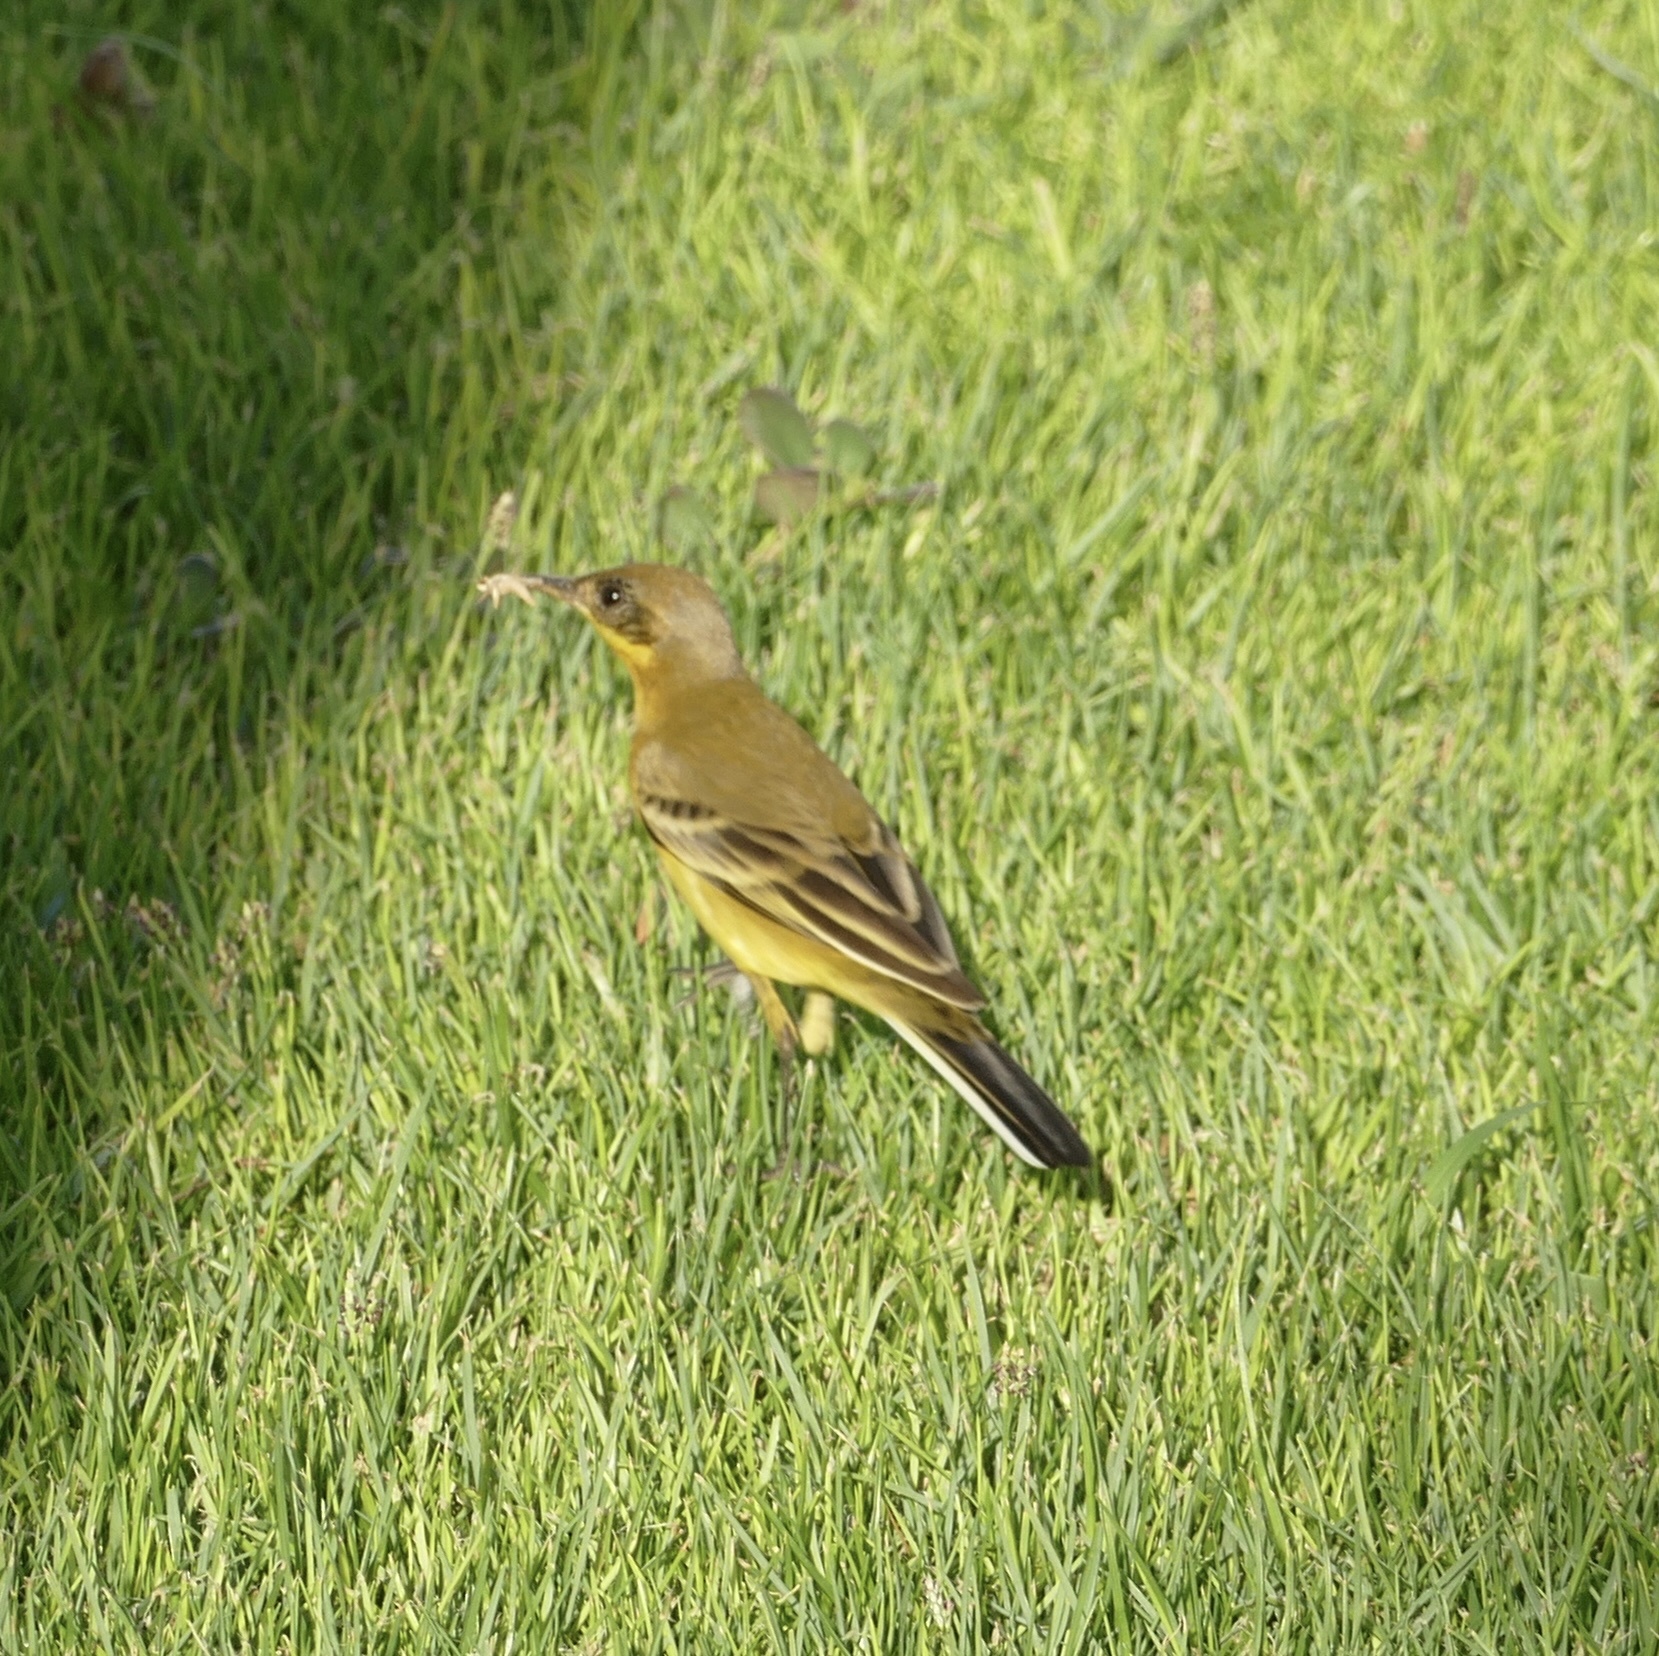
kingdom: Animalia
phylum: Chordata
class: Aves
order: Passeriformes
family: Motacillidae
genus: Motacilla
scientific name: Motacilla flava
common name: Western yellow wagtail
